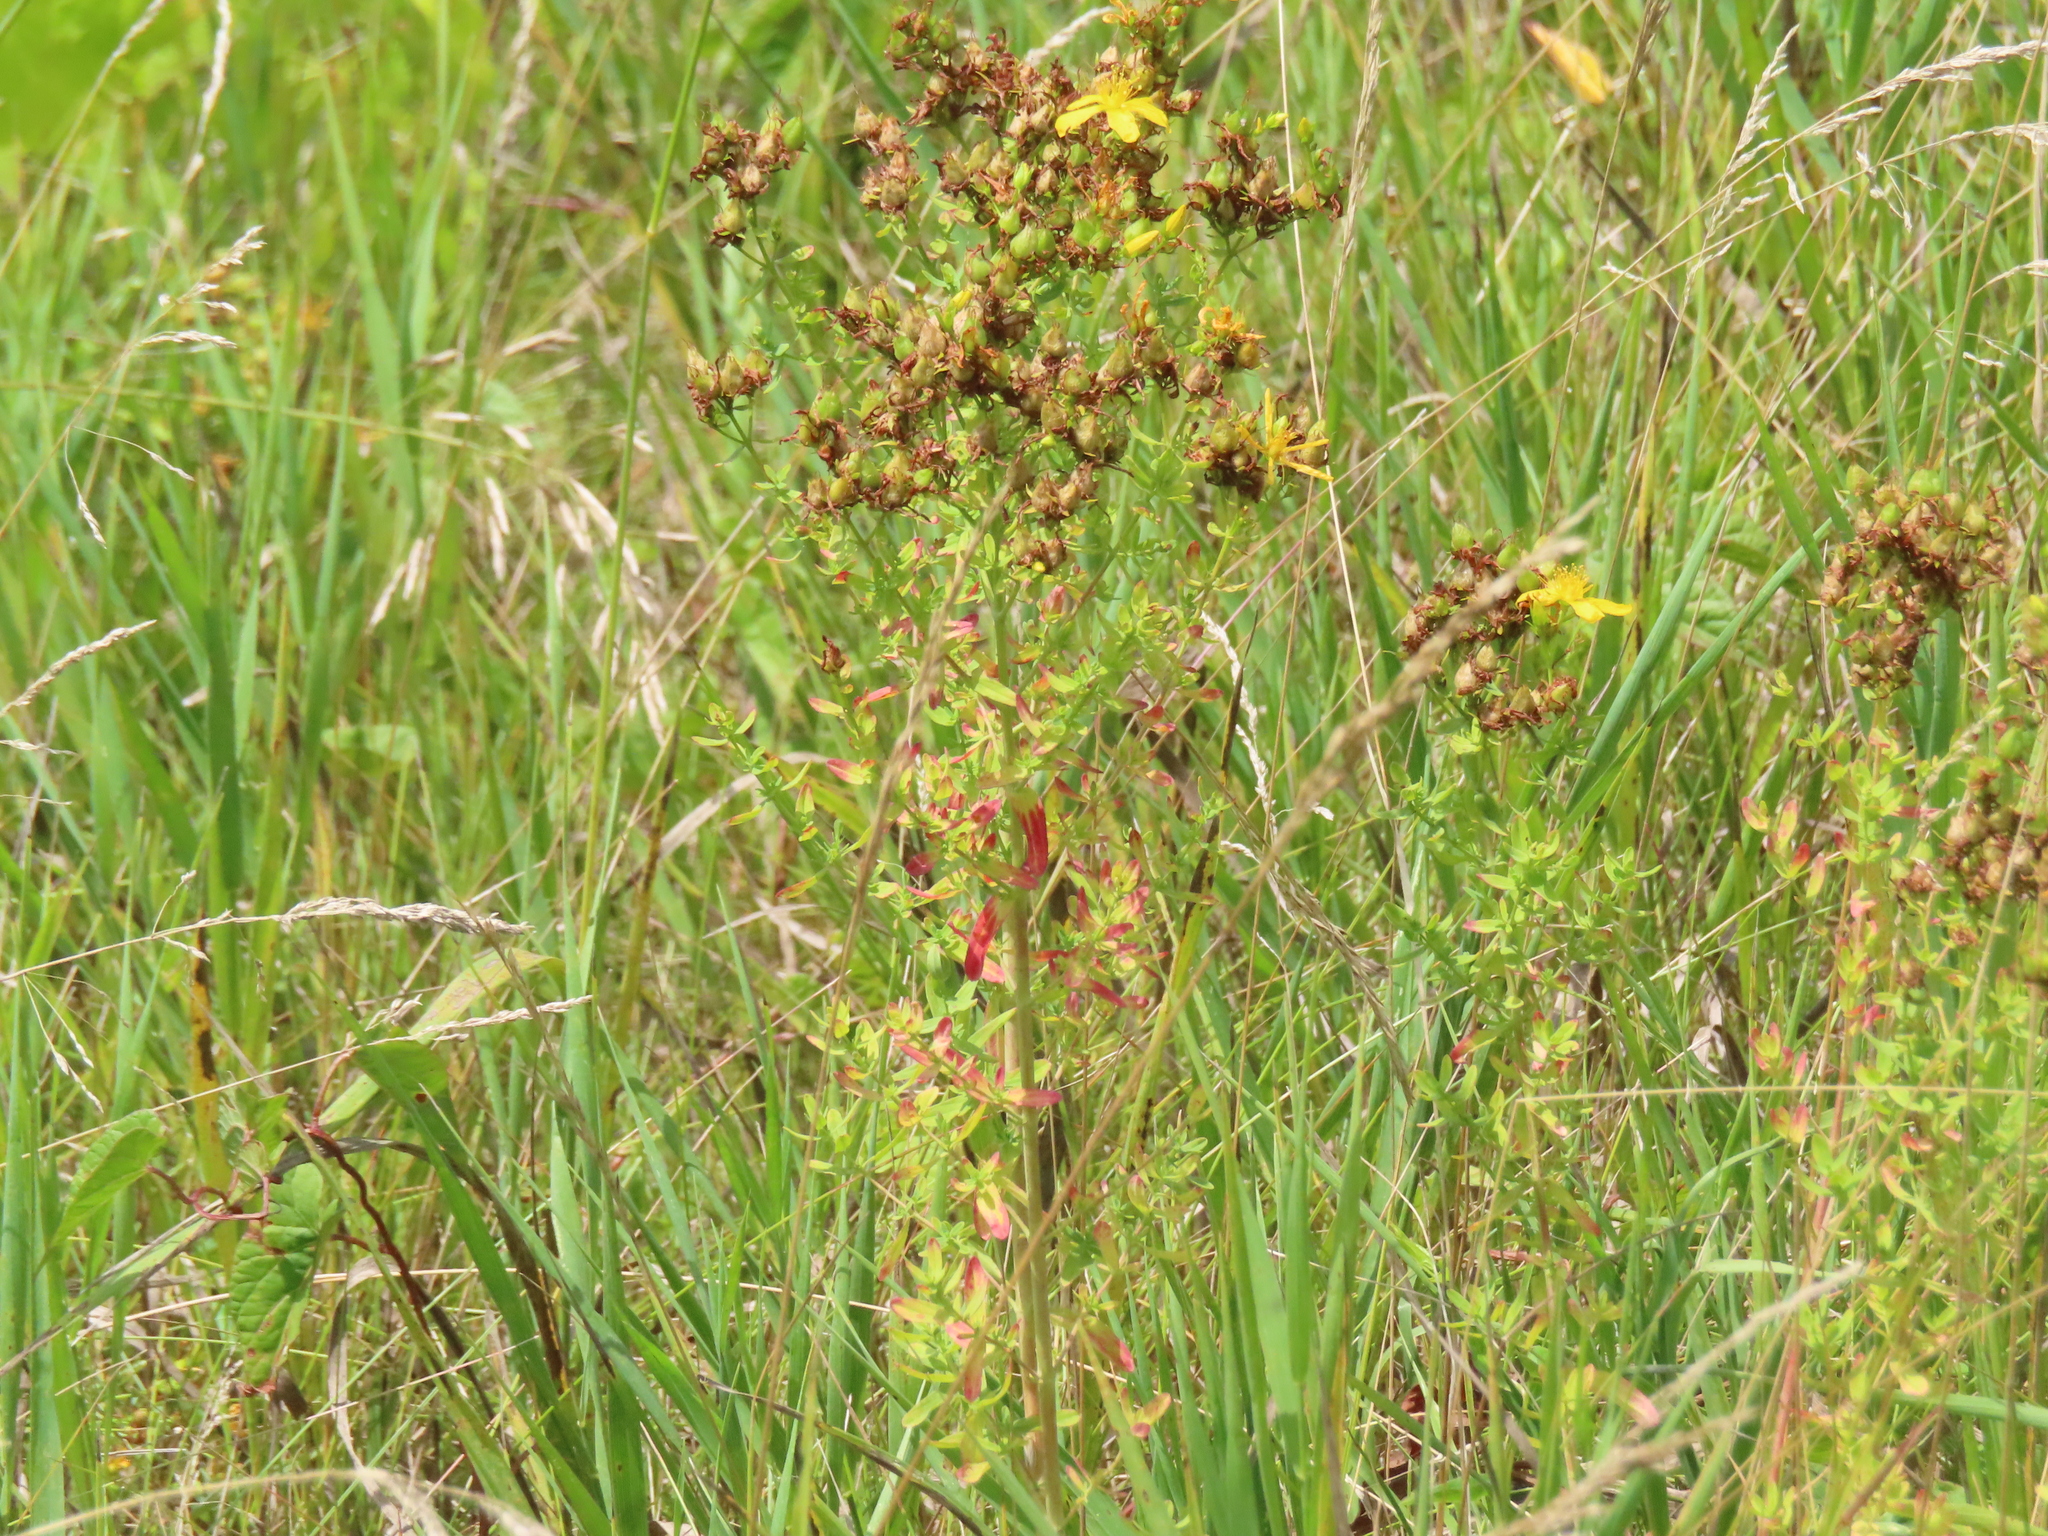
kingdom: Plantae
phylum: Tracheophyta
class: Magnoliopsida
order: Malpighiales
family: Hypericaceae
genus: Hypericum
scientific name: Hypericum perforatum
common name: Common st. johnswort
